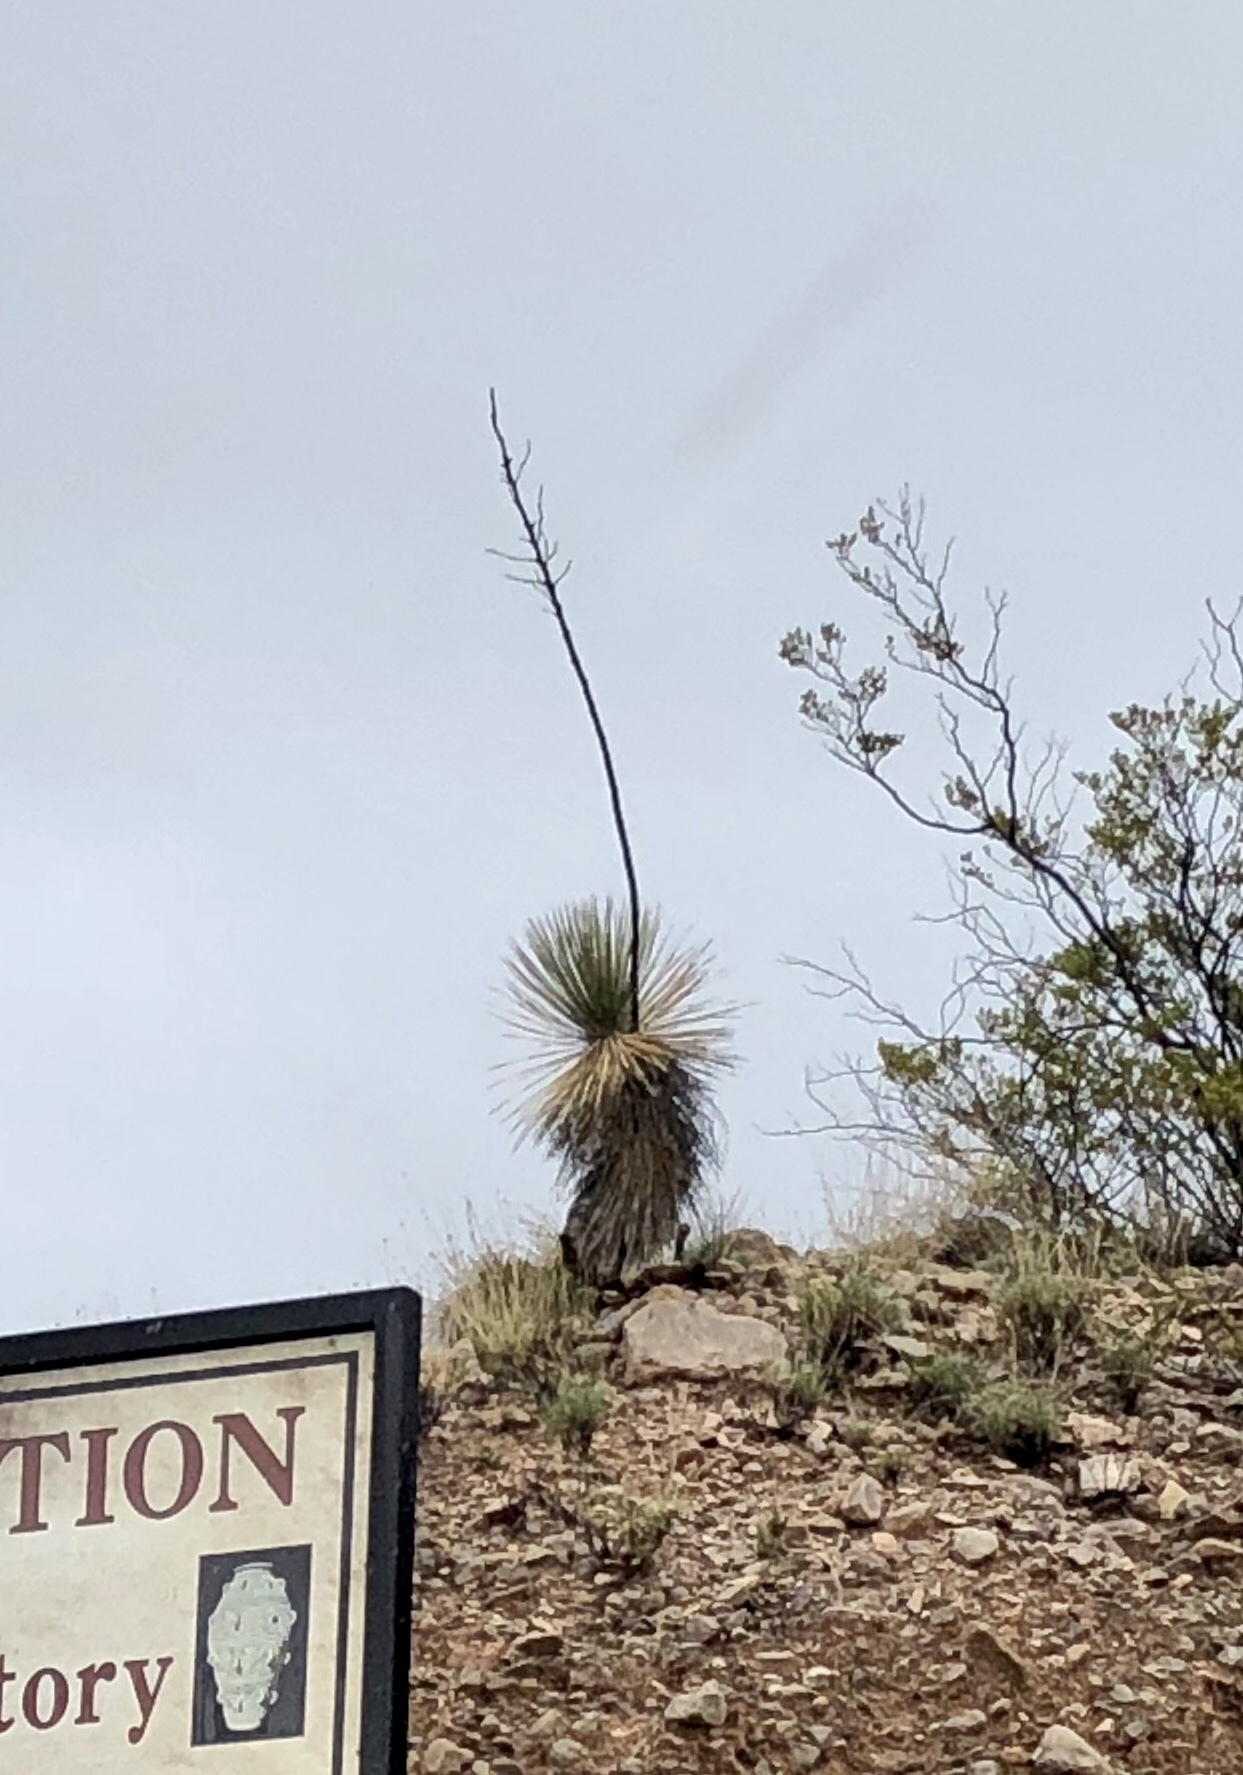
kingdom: Plantae
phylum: Tracheophyta
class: Liliopsida
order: Asparagales
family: Asparagaceae
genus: Yucca
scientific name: Yucca elata
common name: Palmella
